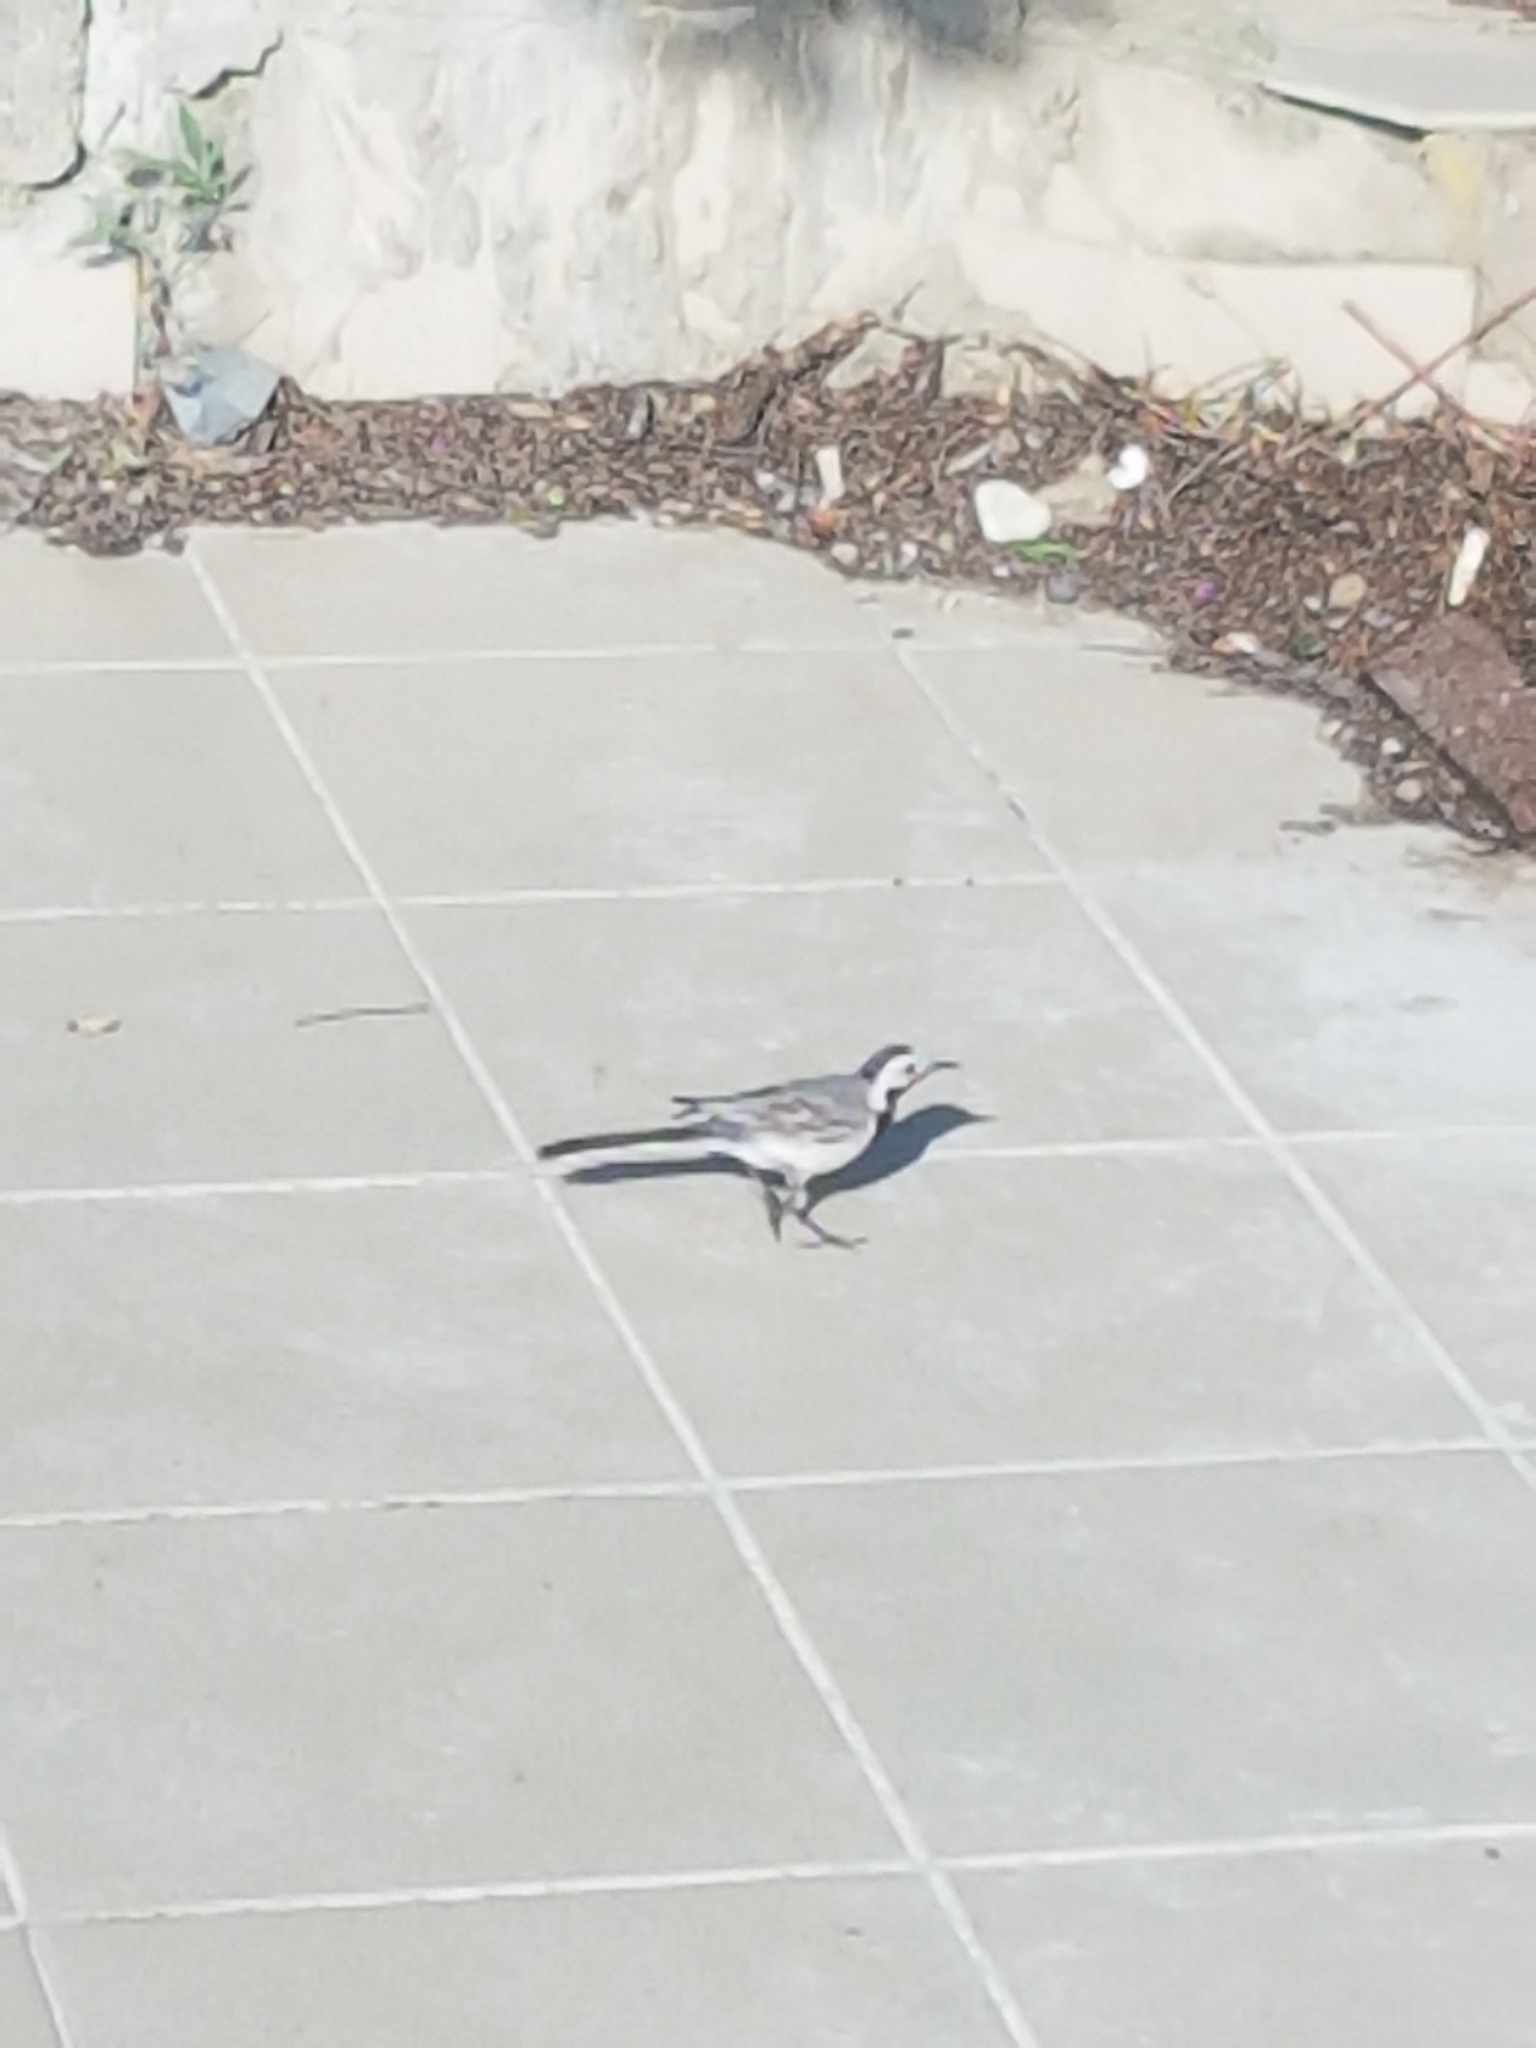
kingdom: Animalia
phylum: Chordata
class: Aves
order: Passeriformes
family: Motacillidae
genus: Motacilla
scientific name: Motacilla alba
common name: White wagtail
